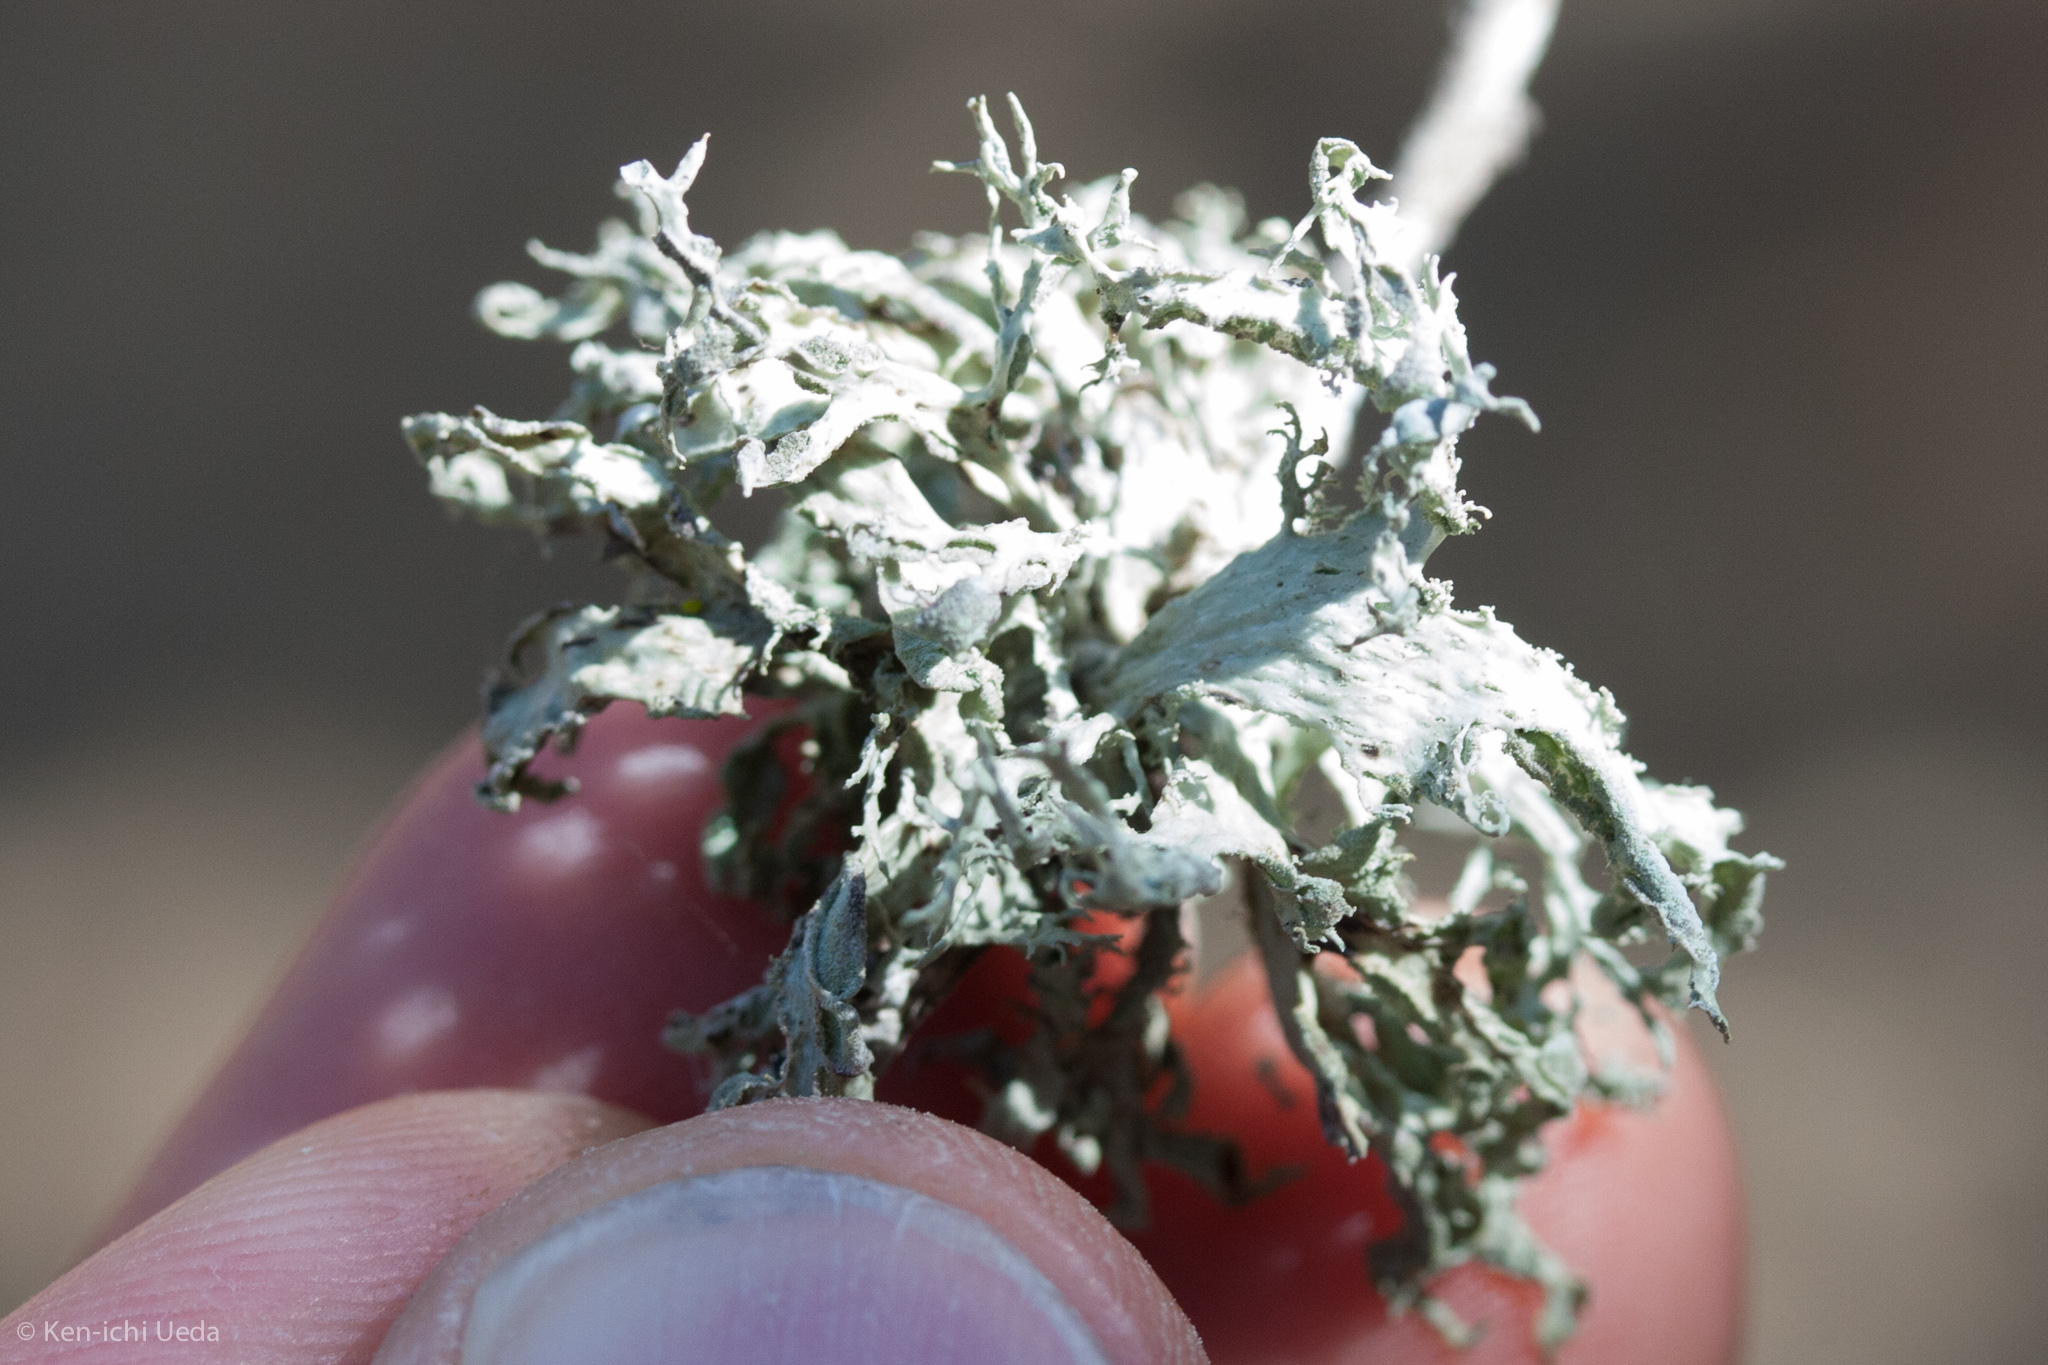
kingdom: Fungi
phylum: Ascomycota
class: Lecanoromycetes
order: Lecanorales
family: Ramalinaceae
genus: Ramalina
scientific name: Ramalina canariensis
